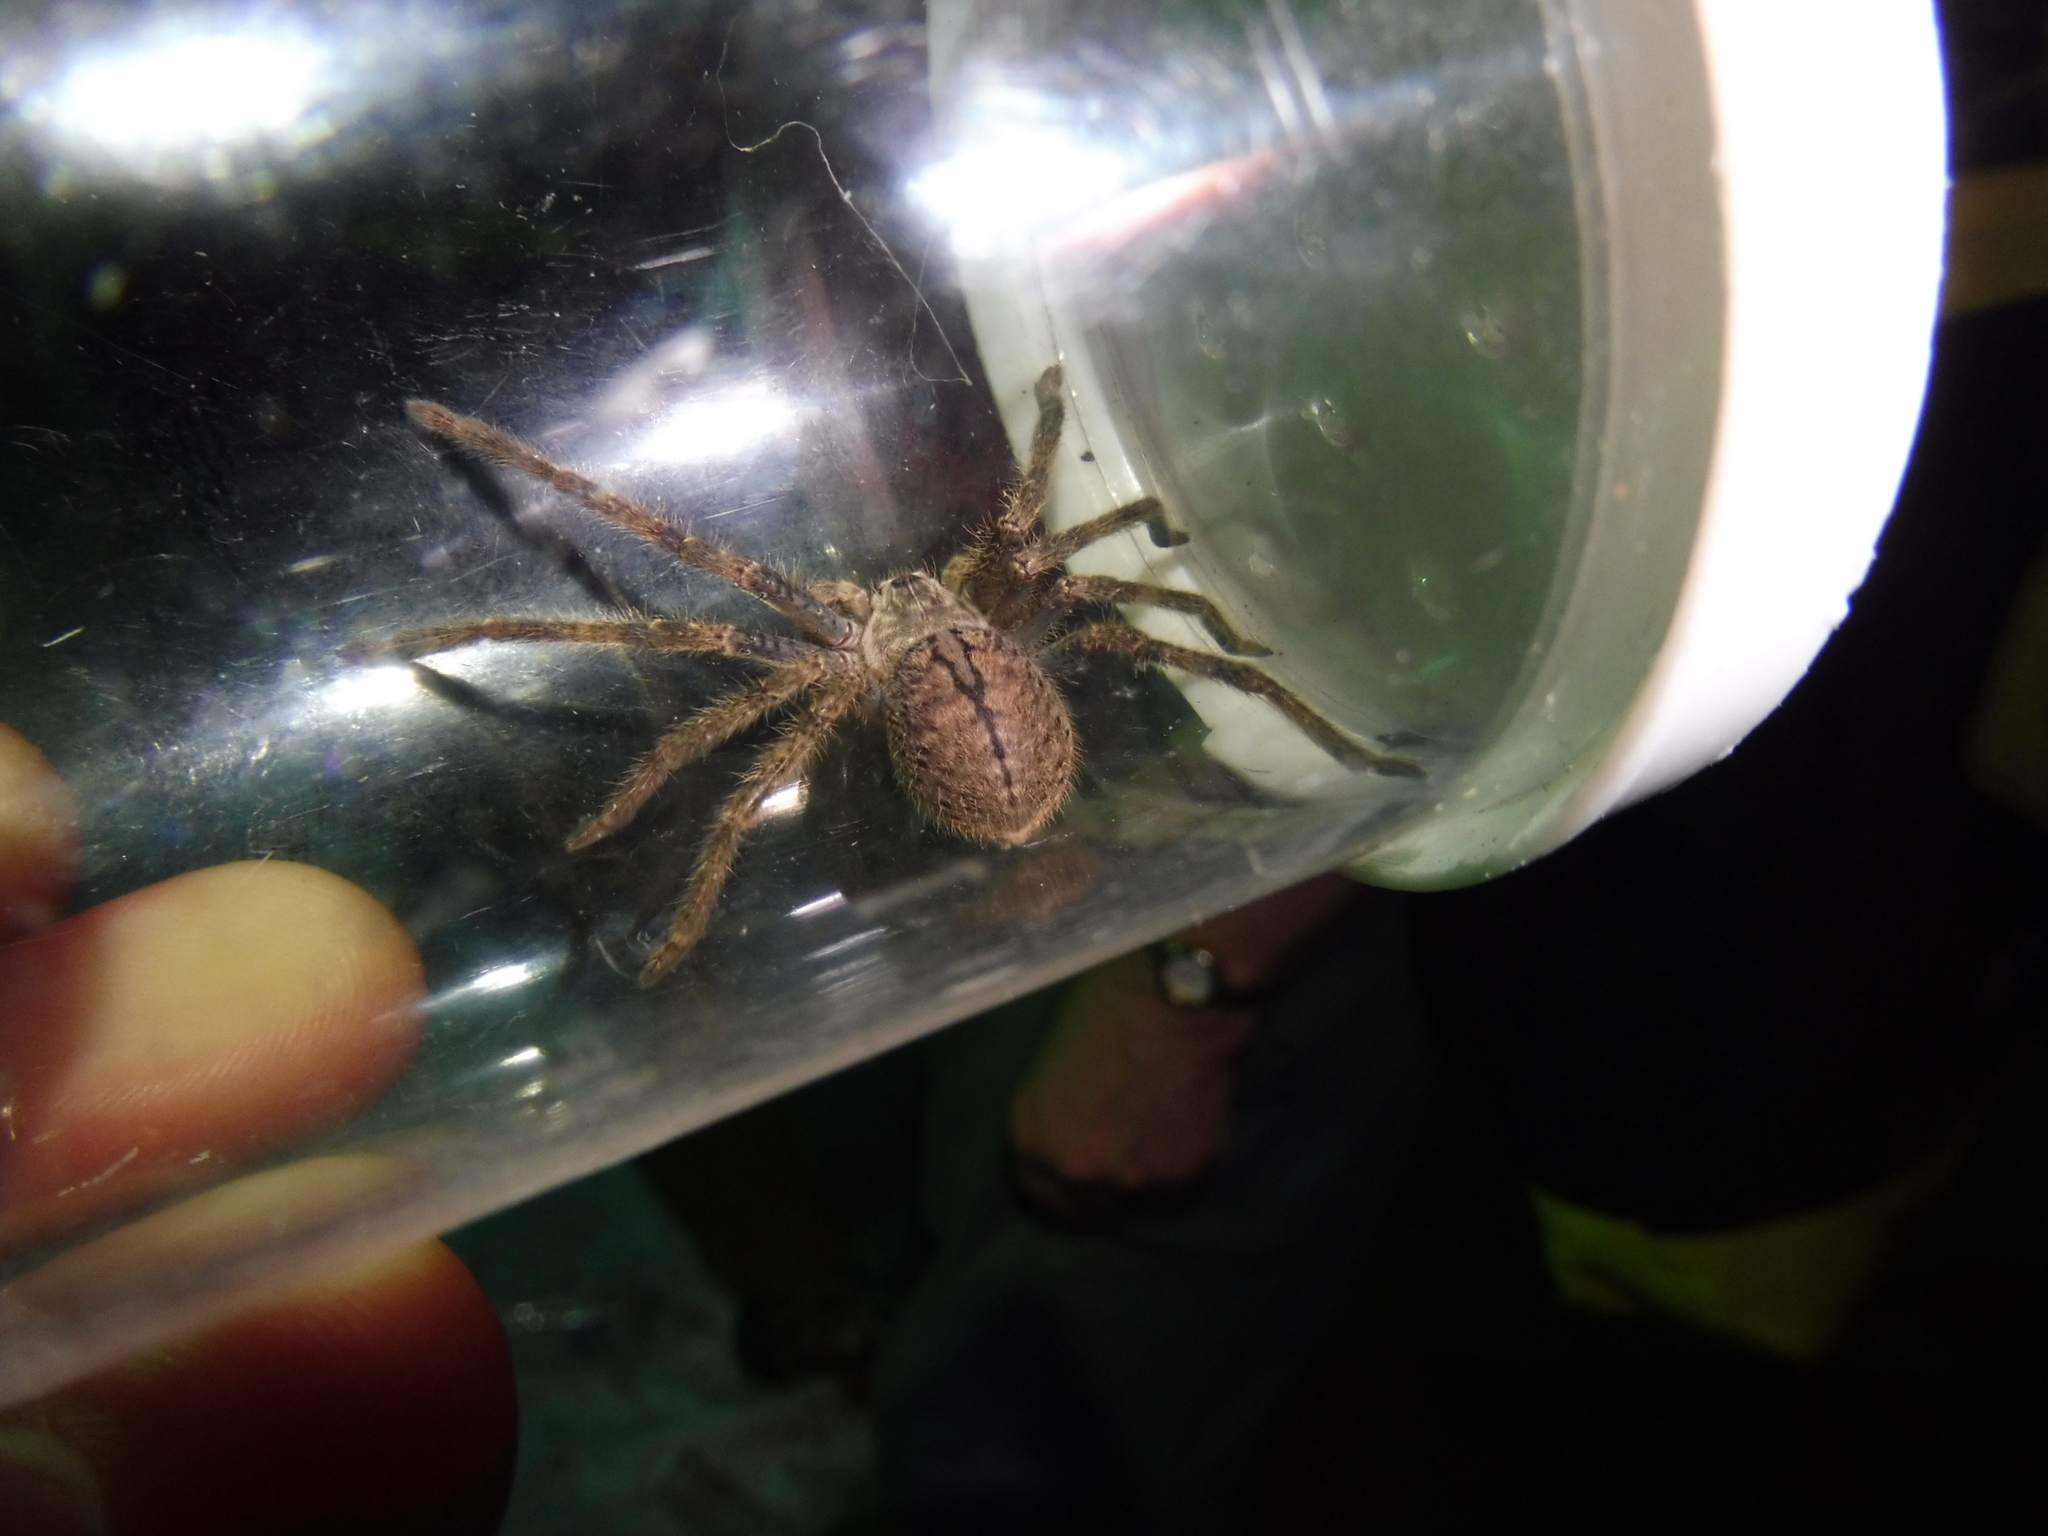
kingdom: Animalia
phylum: Arthropoda
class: Arachnida
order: Araneae
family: Sparassidae
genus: Olios
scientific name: Olios giganteus
